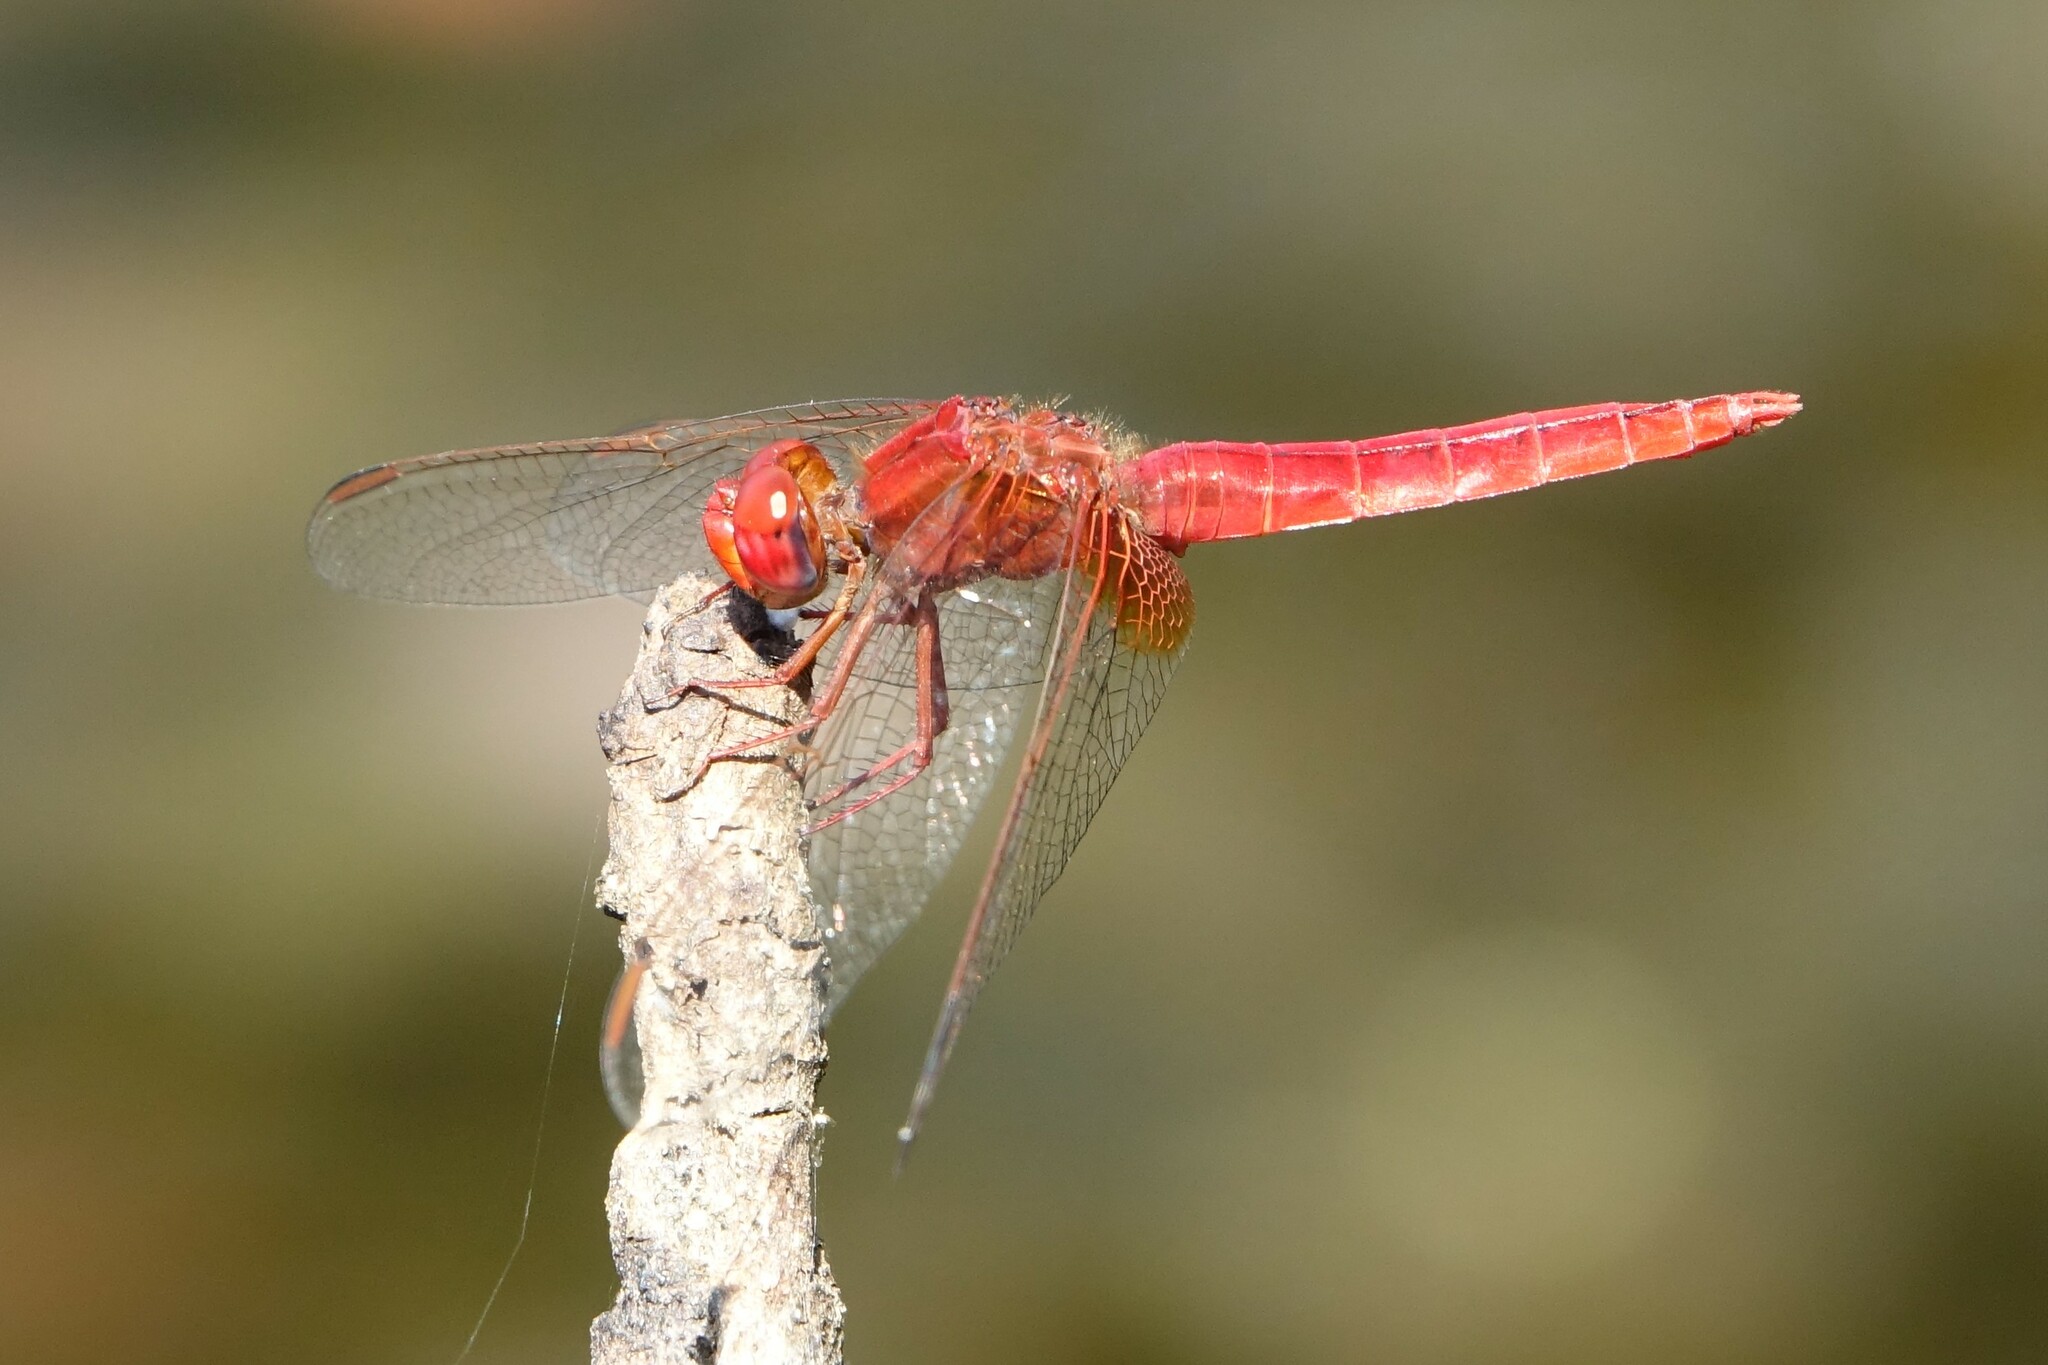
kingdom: Animalia
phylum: Arthropoda
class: Insecta
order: Odonata
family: Libellulidae
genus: Crocothemis
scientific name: Crocothemis erythraea
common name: Scarlet dragonfly
